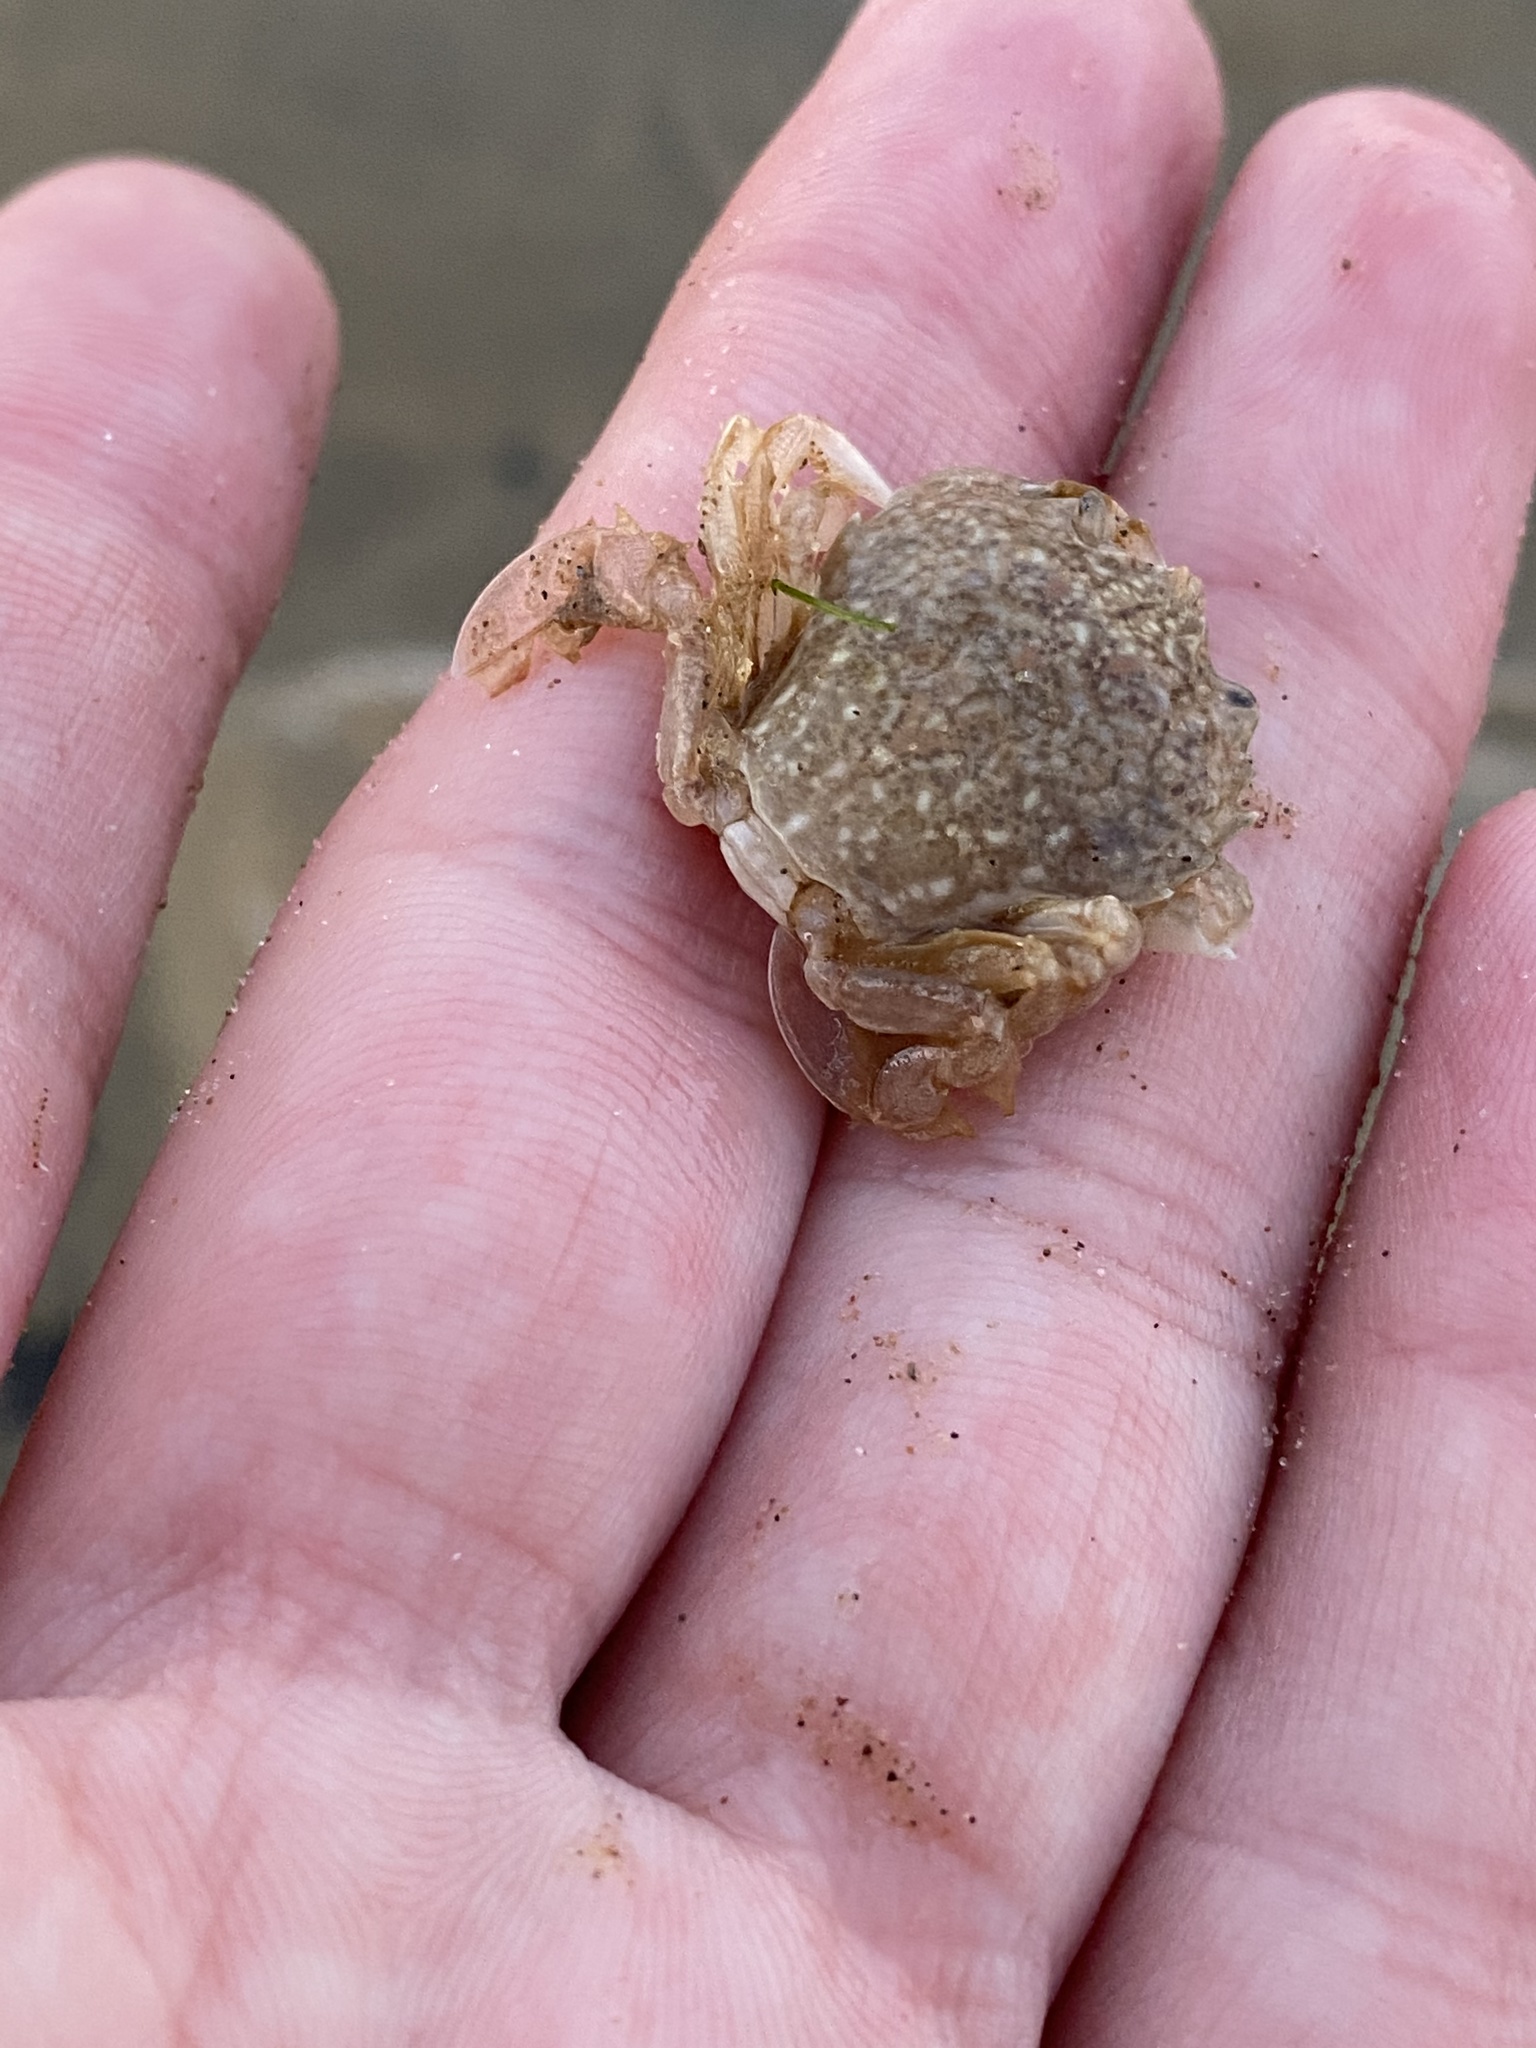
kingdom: Animalia
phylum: Arthropoda
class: Malacostraca
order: Decapoda
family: Carcinidae
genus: Portumnus
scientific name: Portumnus latipes
